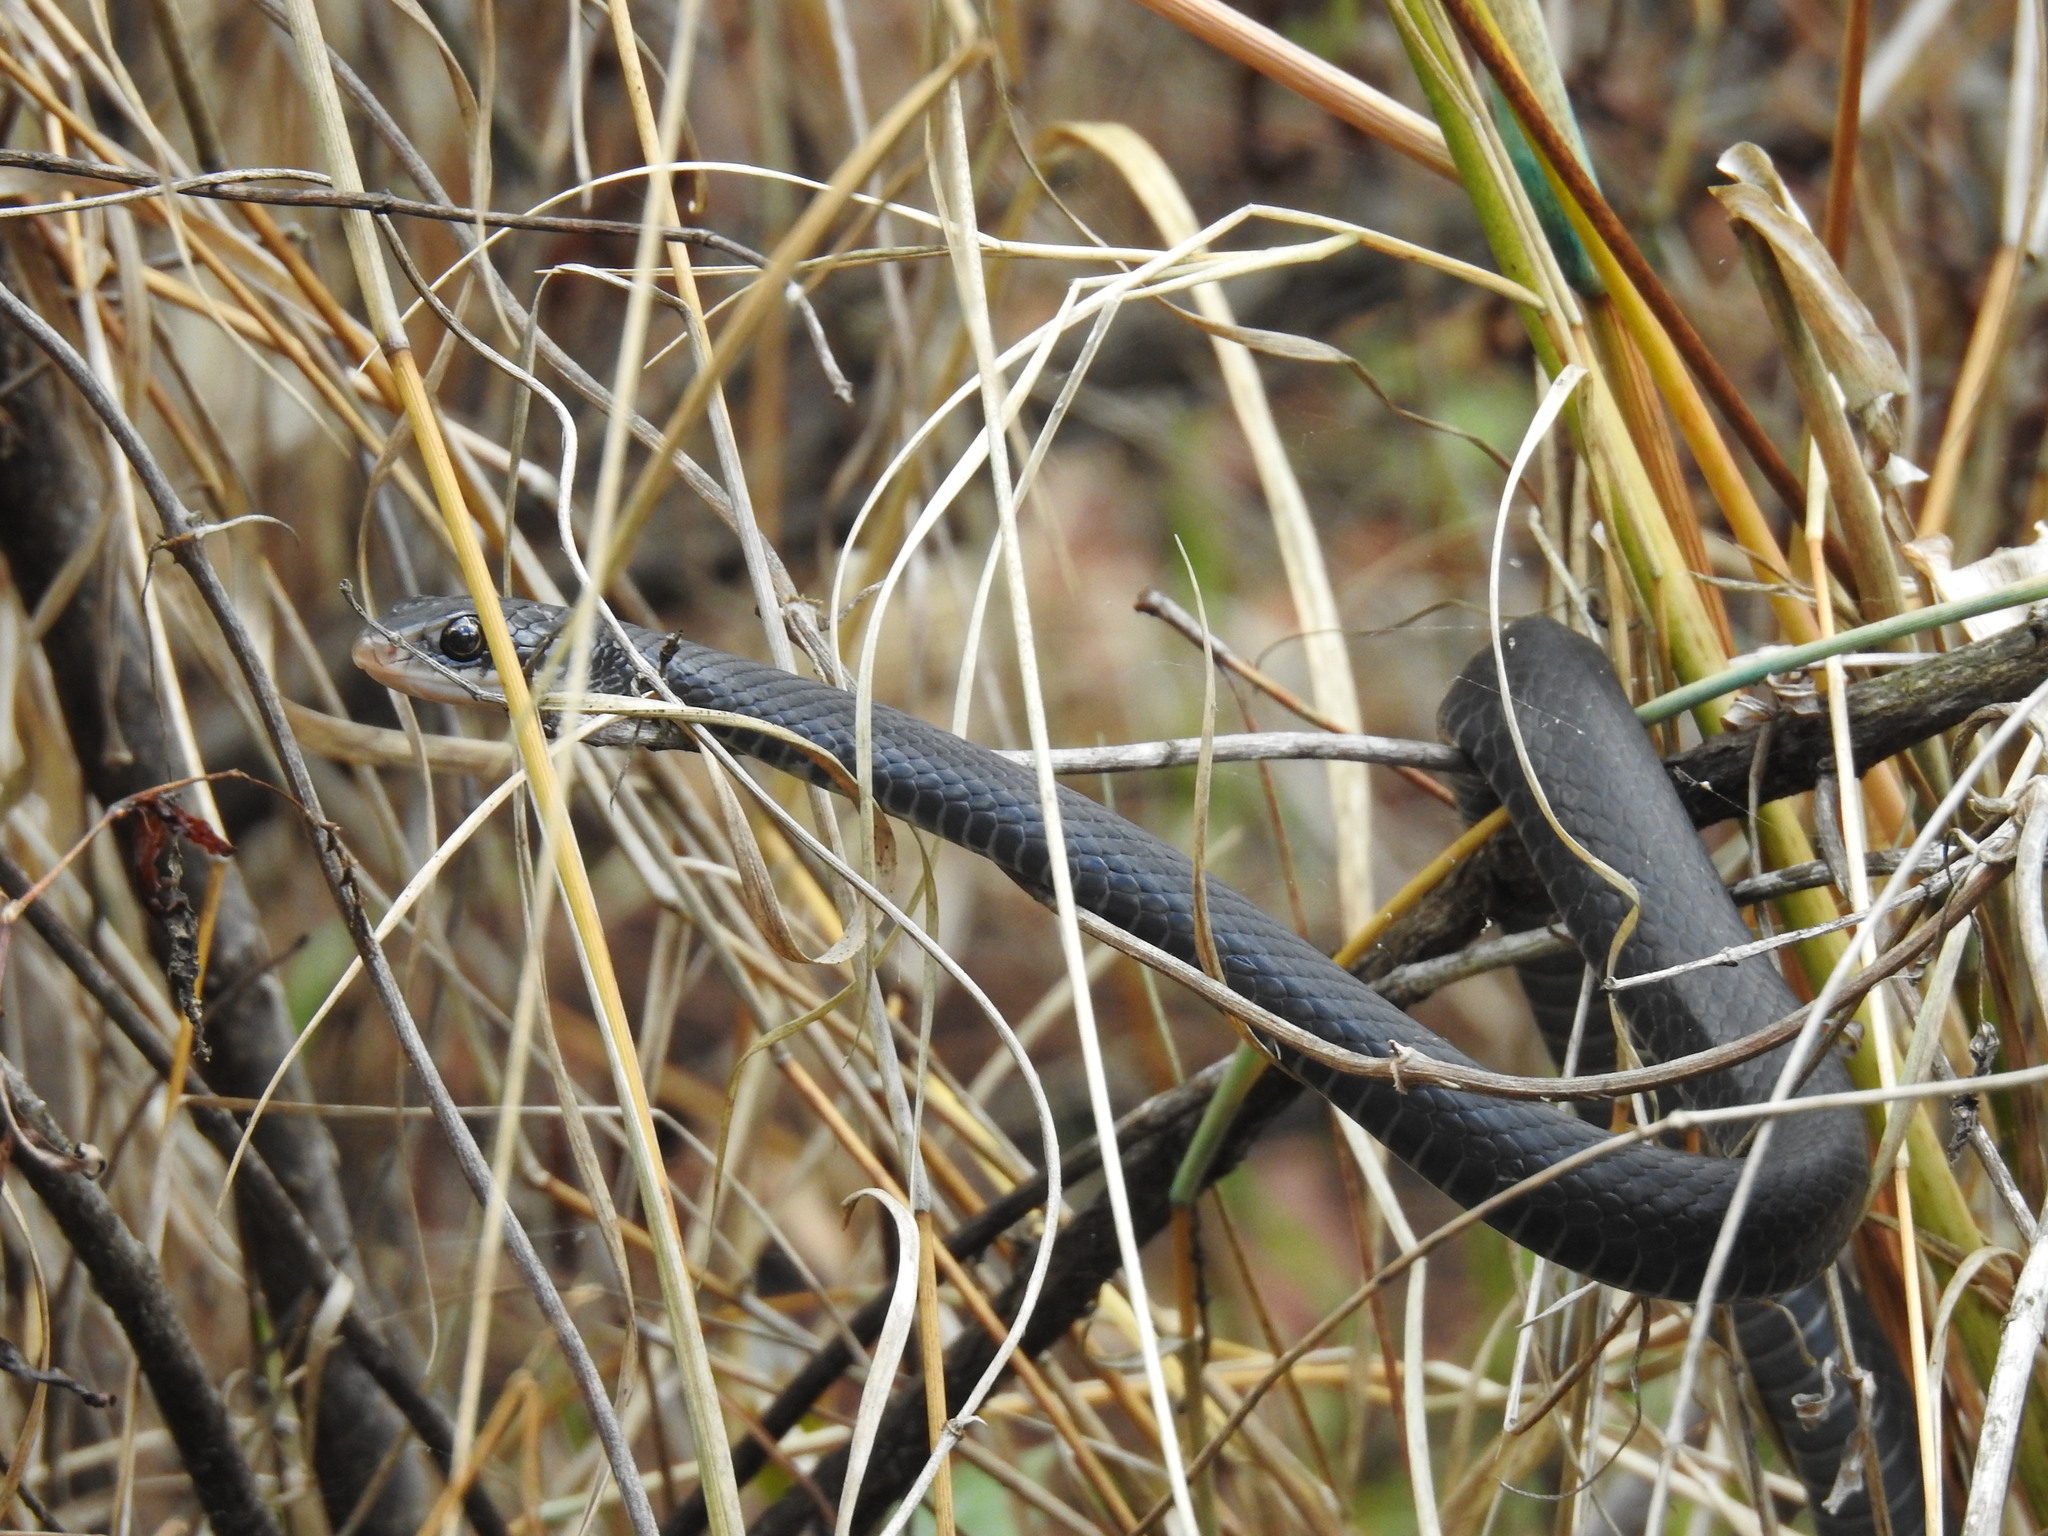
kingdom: Animalia
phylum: Chordata
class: Squamata
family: Colubridae
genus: Coluber
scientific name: Coluber constrictor
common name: Eastern racer
